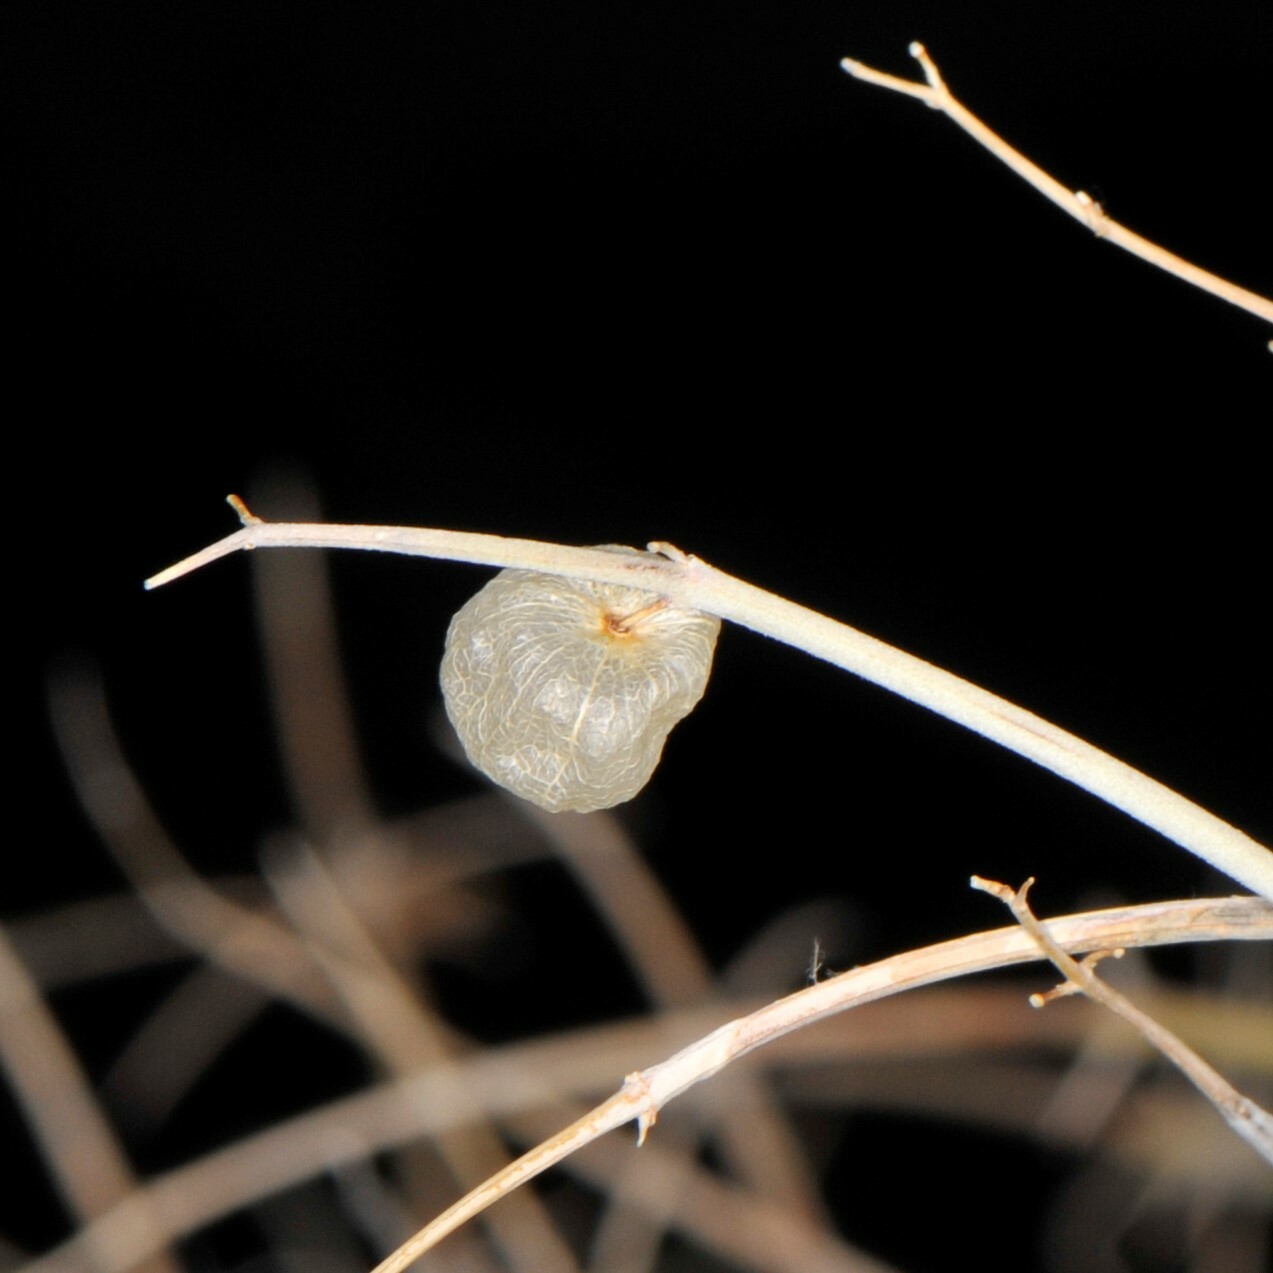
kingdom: Plantae
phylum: Tracheophyta
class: Magnoliopsida
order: Lamiales
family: Lamiaceae
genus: Scutellaria
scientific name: Scutellaria mexicana
